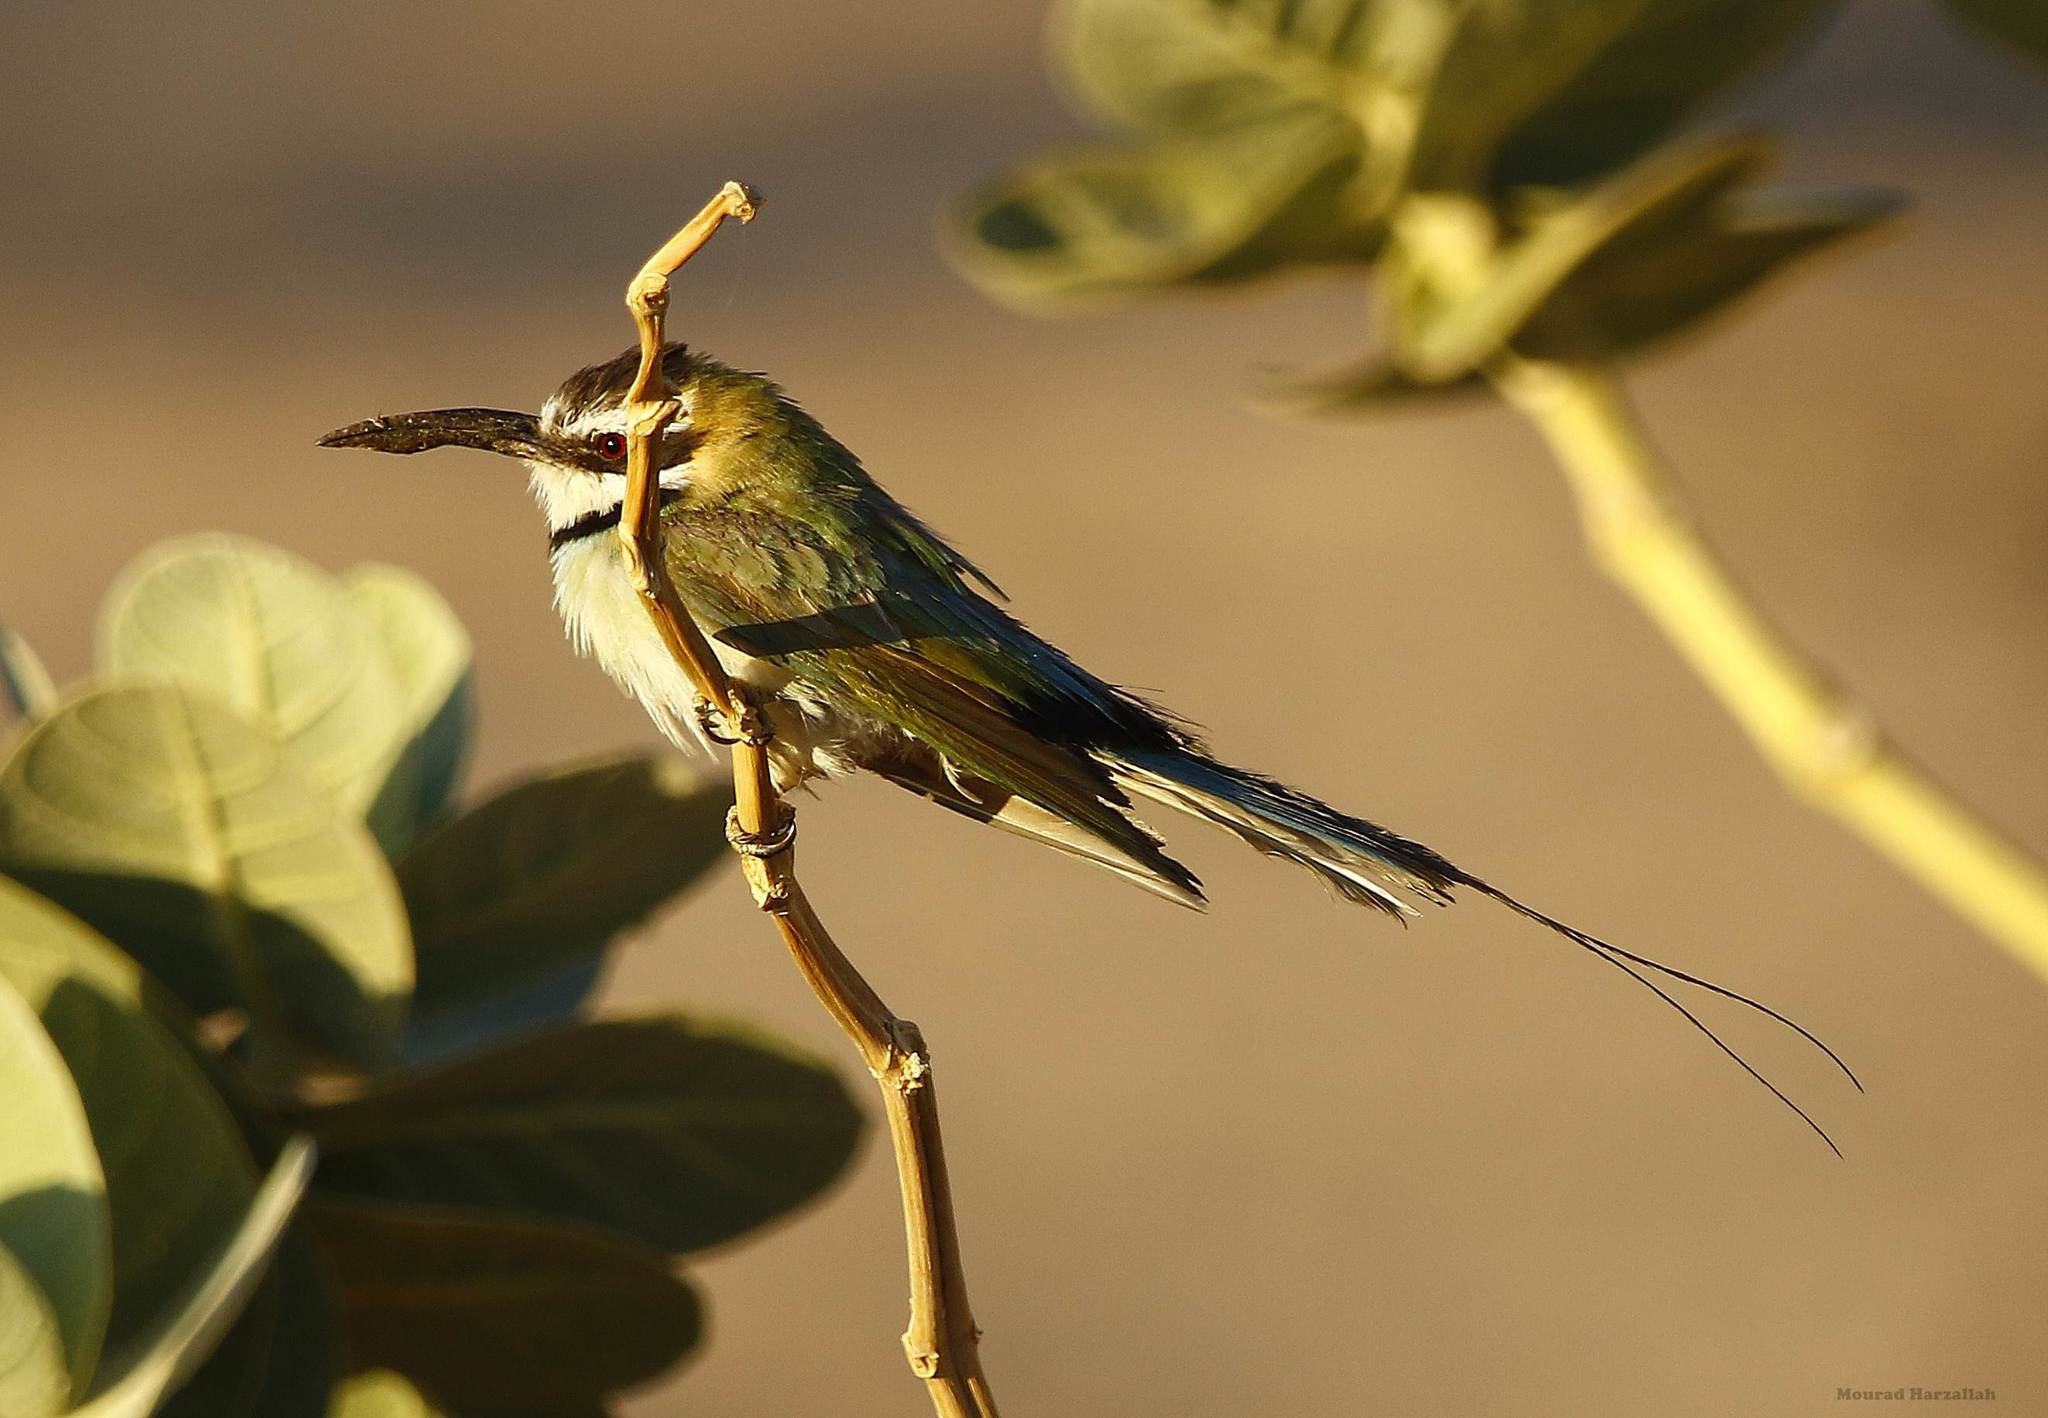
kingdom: Animalia
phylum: Chordata
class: Aves
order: Coraciiformes
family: Meropidae
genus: Merops
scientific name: Merops albicollis
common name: White-throated bee-eater
